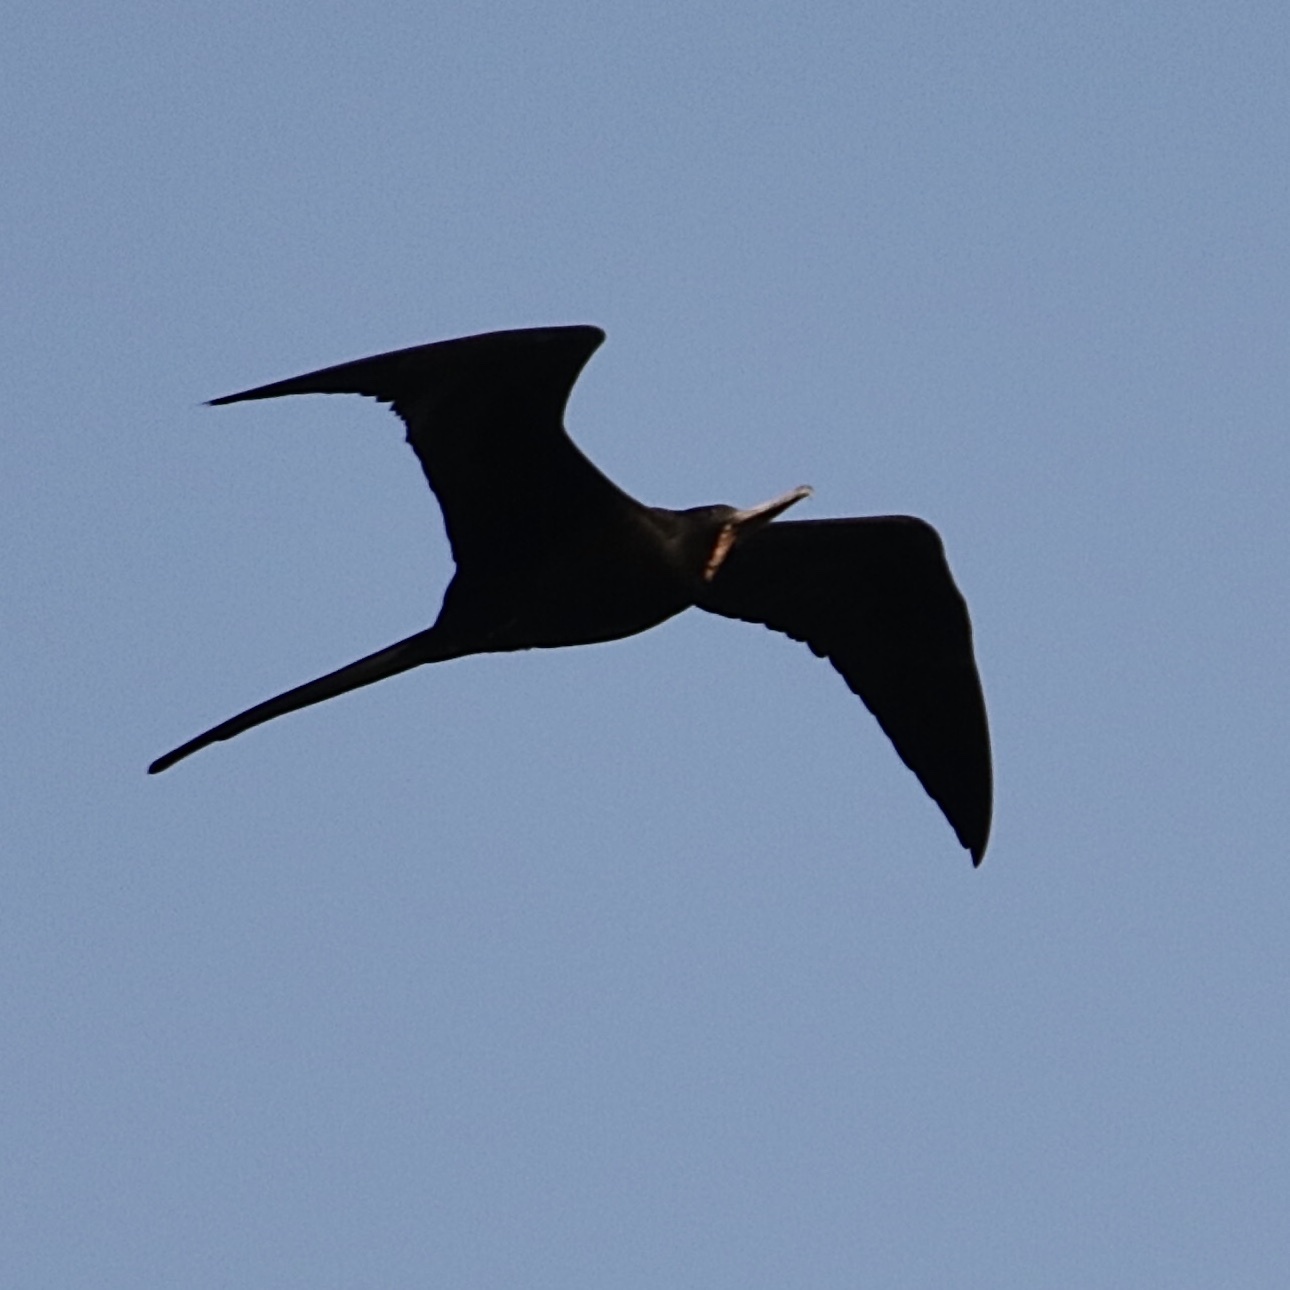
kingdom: Animalia
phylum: Chordata
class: Aves
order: Suliformes
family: Fregatidae
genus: Fregata
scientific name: Fregata magnificens
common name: Magnificent frigatebird
